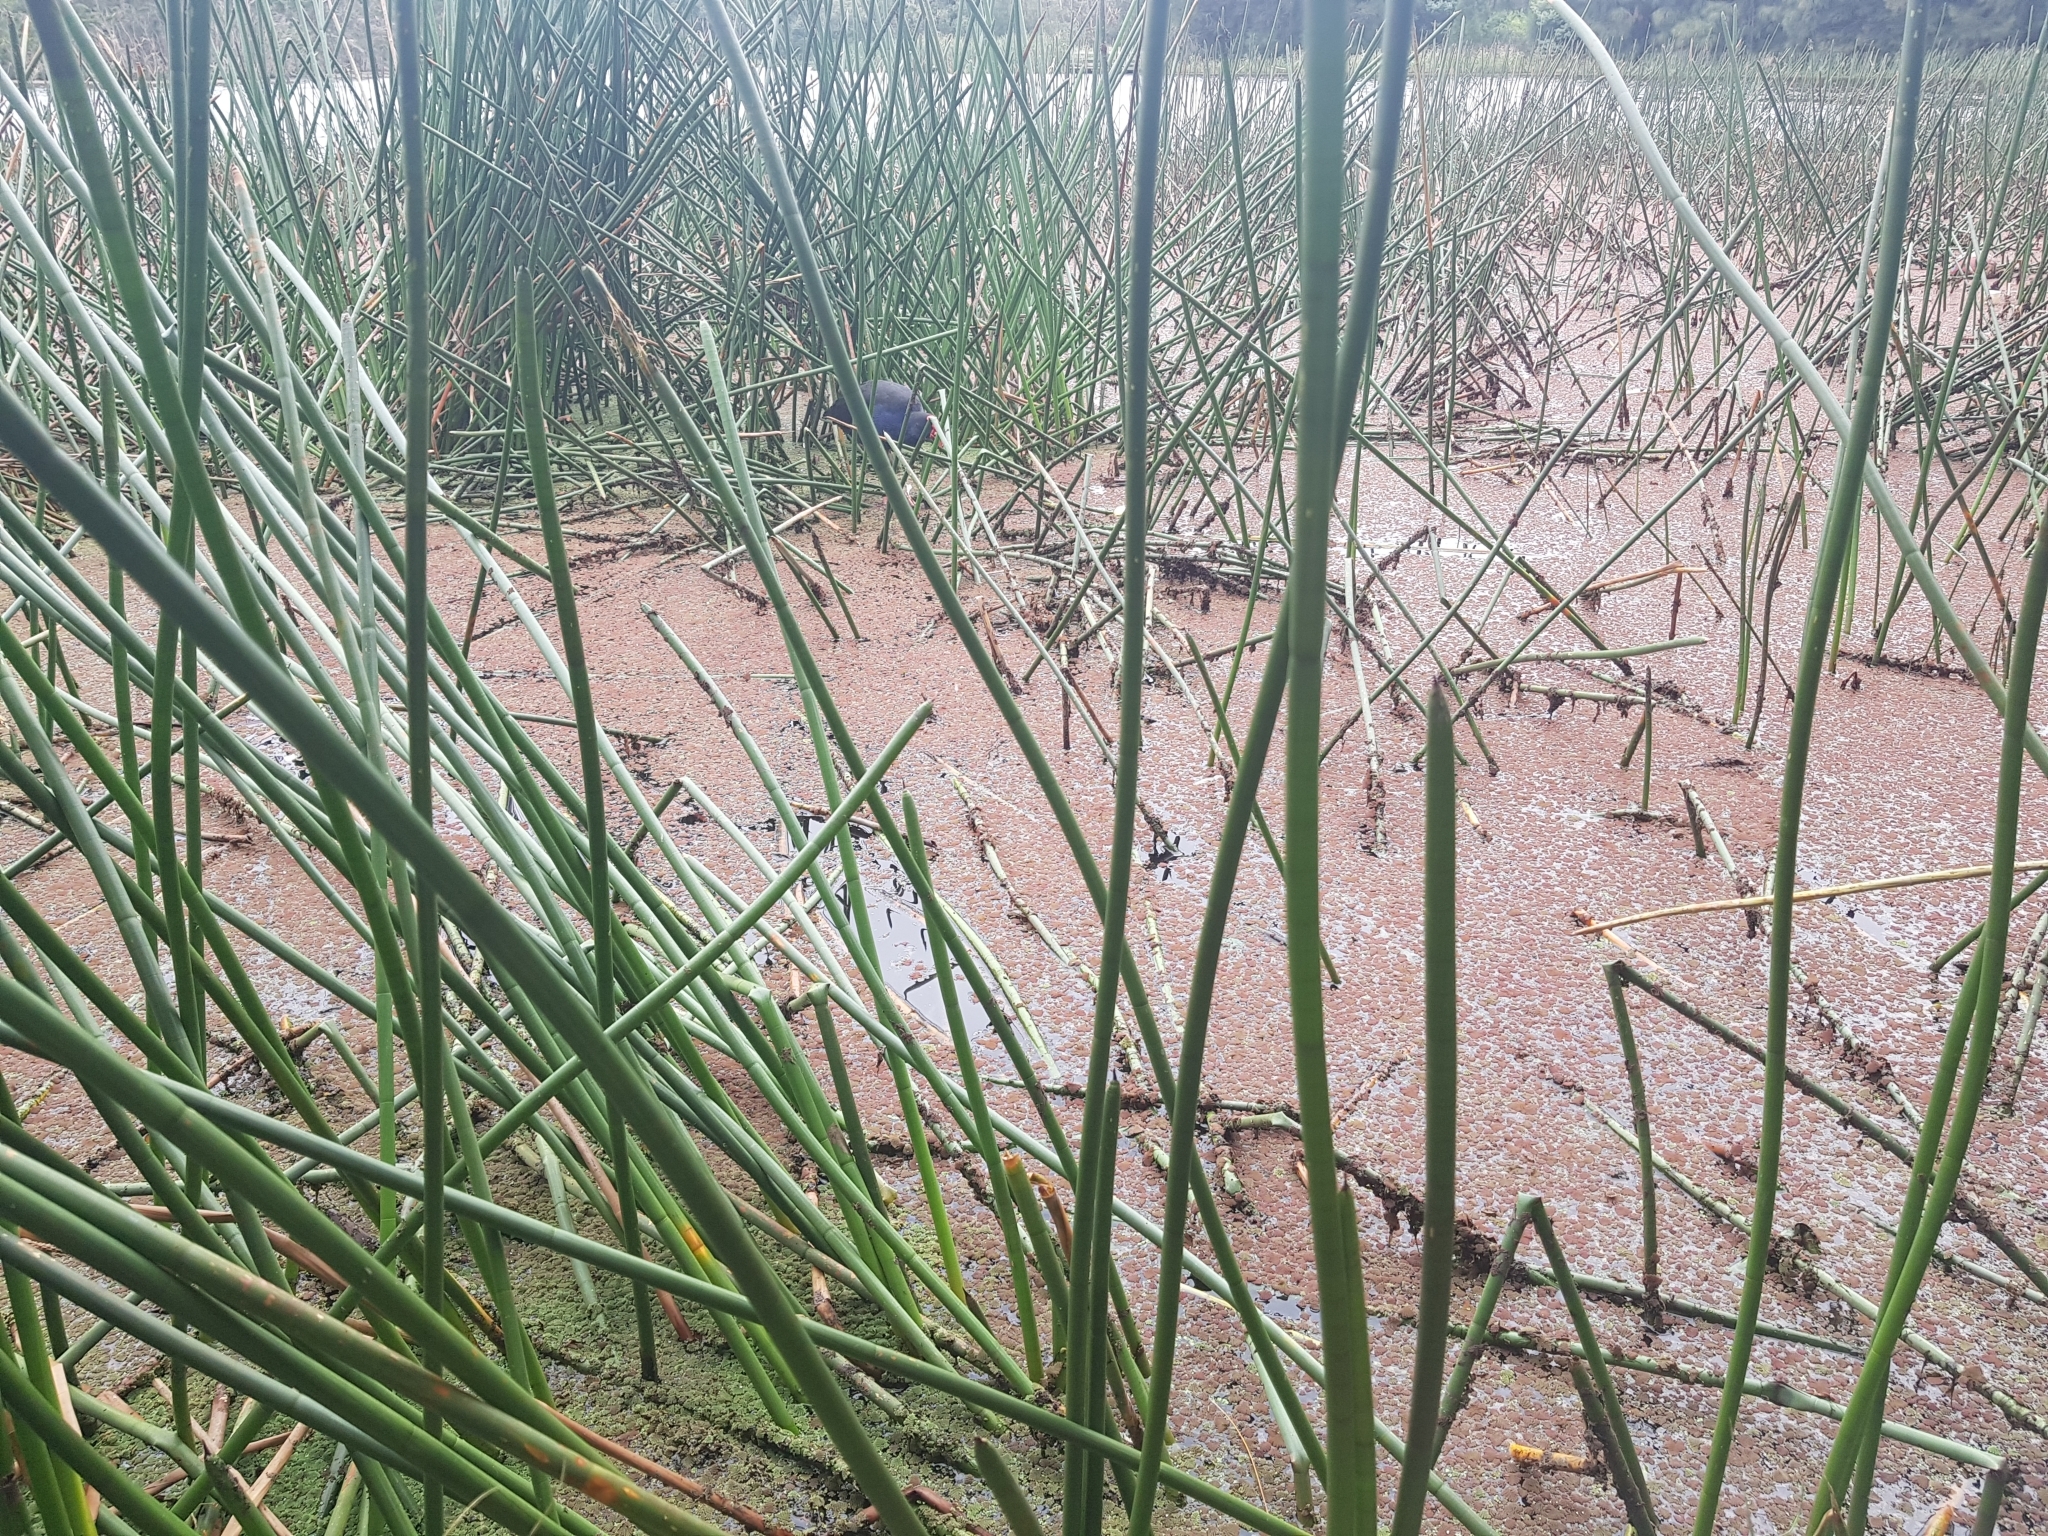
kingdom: Animalia
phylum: Chordata
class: Aves
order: Gruiformes
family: Rallidae
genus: Porphyrio
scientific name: Porphyrio melanotus
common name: Australasian swamphen
